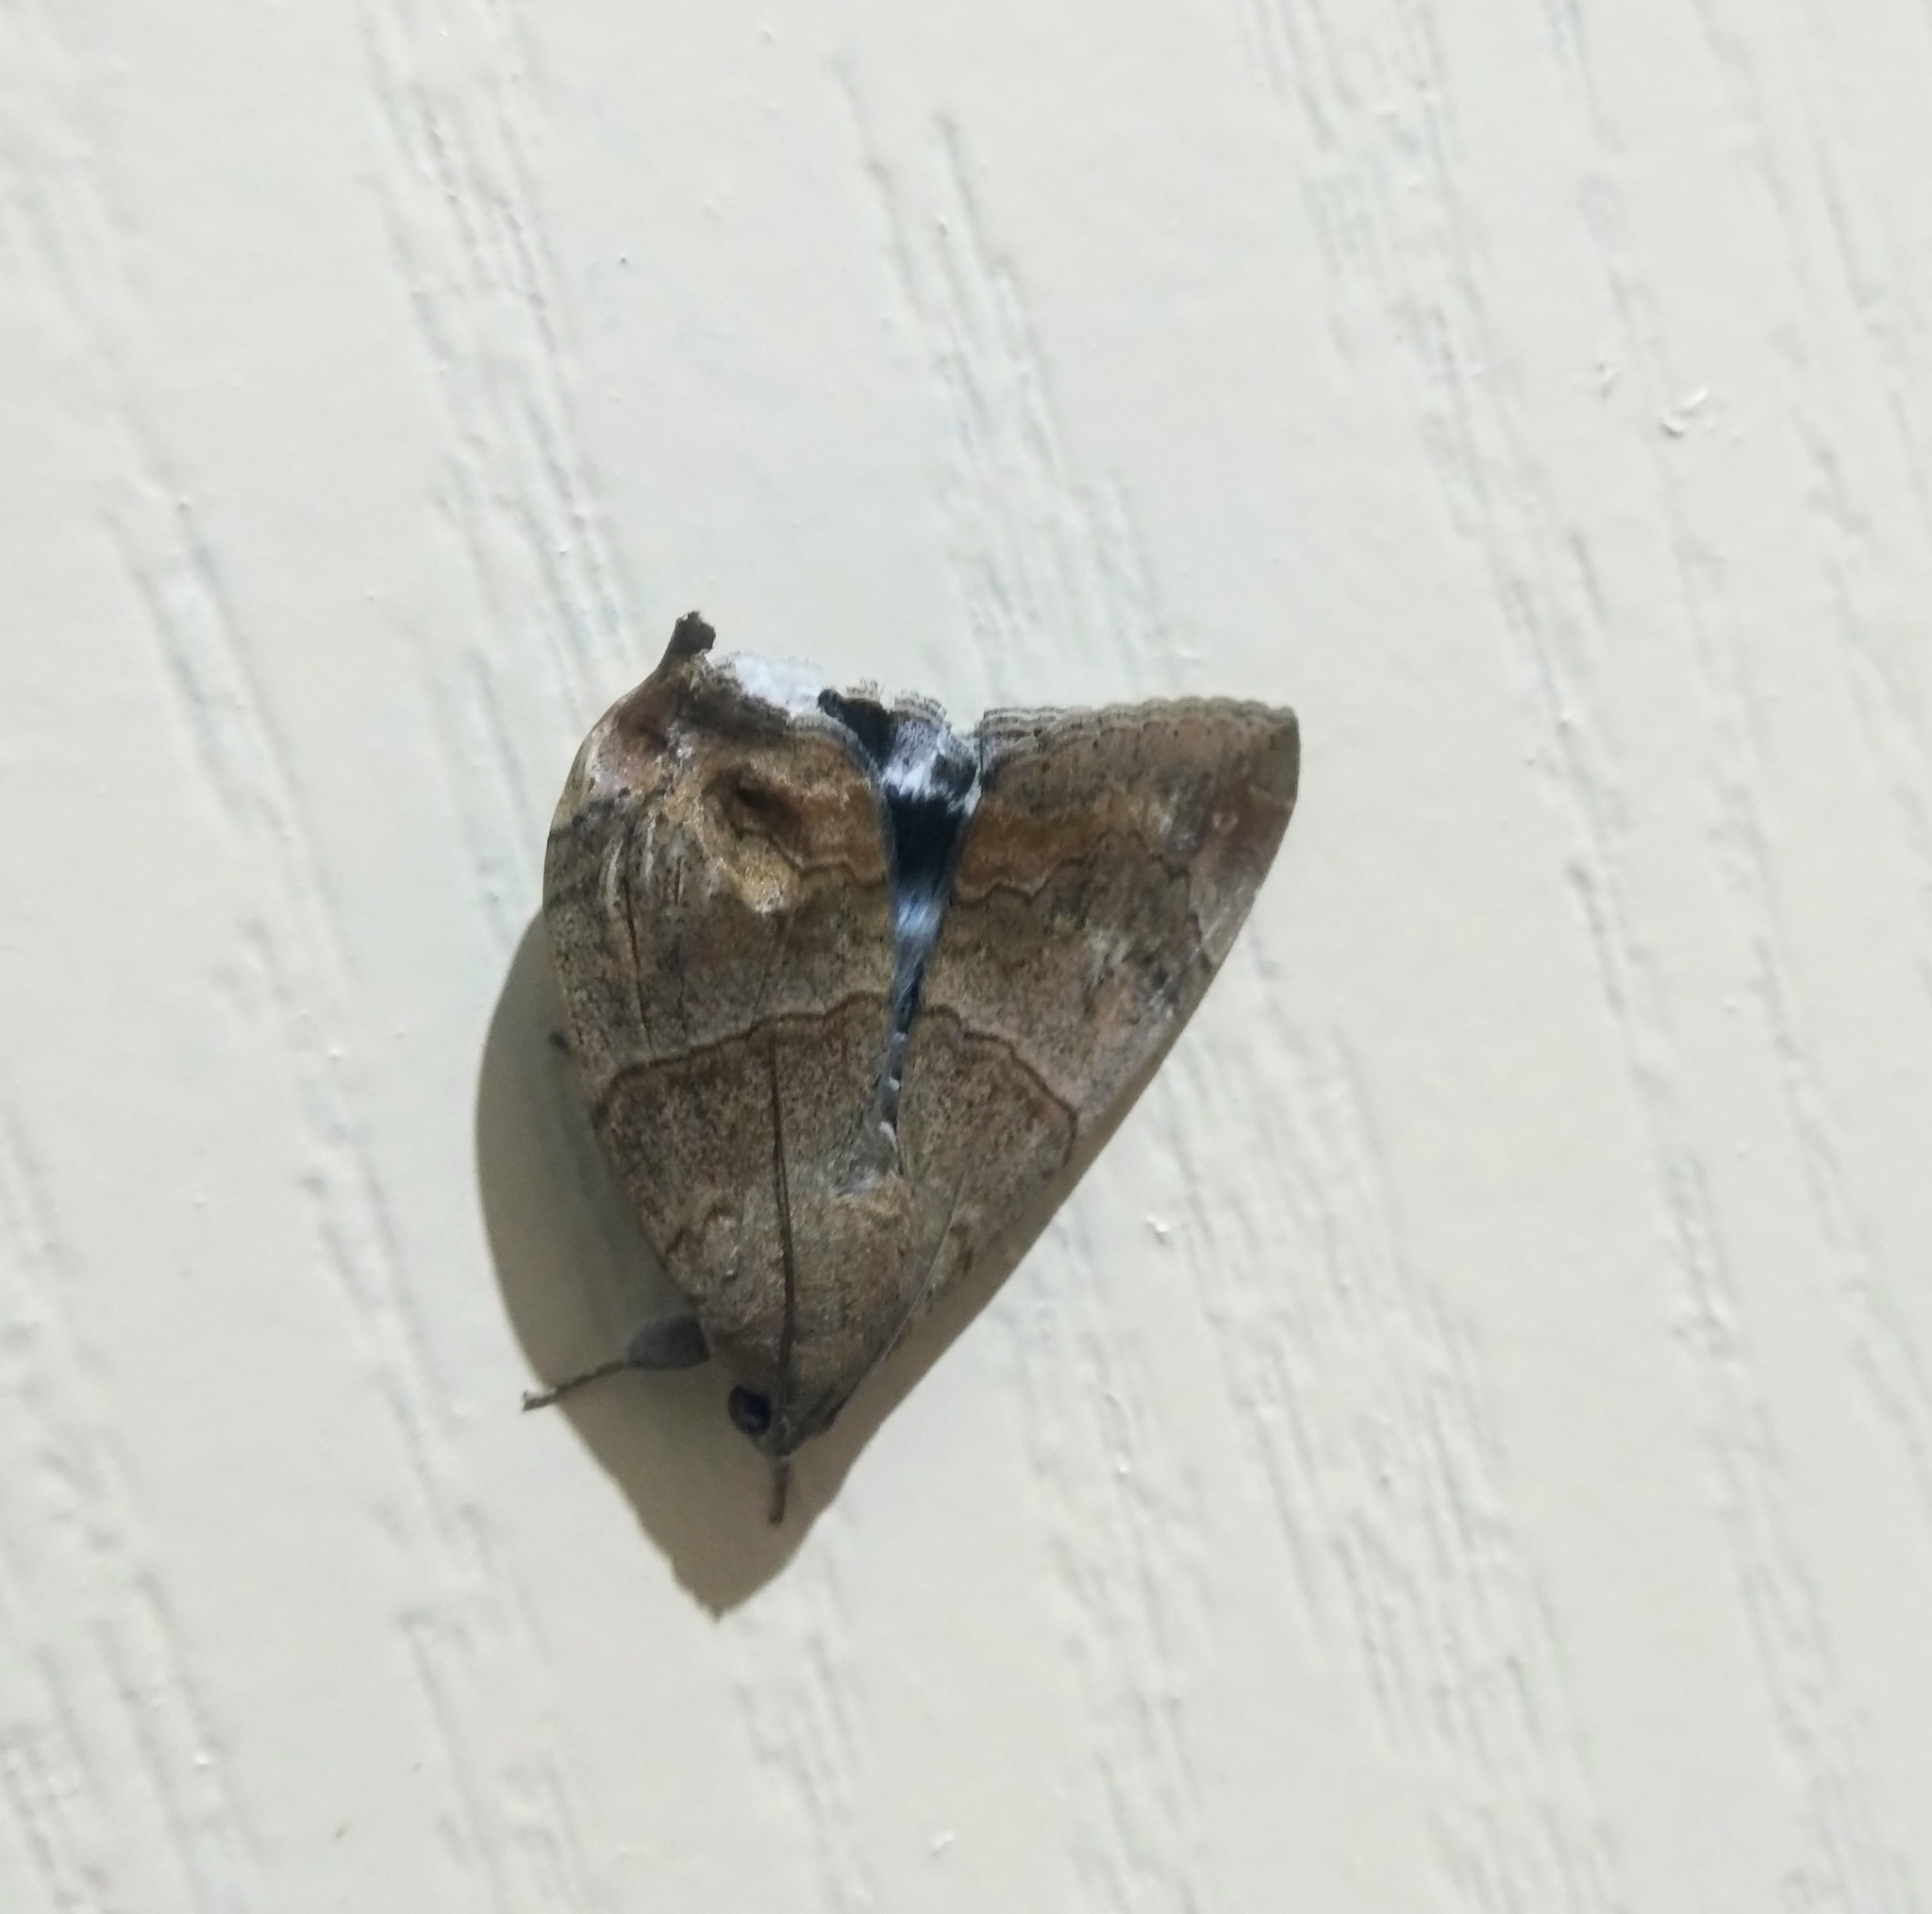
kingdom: Animalia
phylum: Arthropoda
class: Insecta
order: Lepidoptera
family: Erebidae
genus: Achaea
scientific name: Achaea janata
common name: Croton caterpillar
